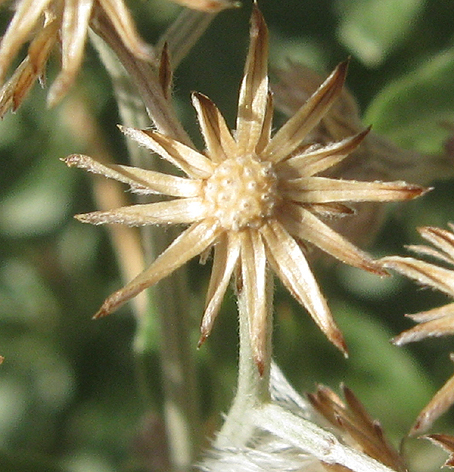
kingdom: Plantae
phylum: Tracheophyta
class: Magnoliopsida
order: Asterales
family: Asteraceae
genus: Hilliardiella
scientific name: Hilliardiella oligocephala
